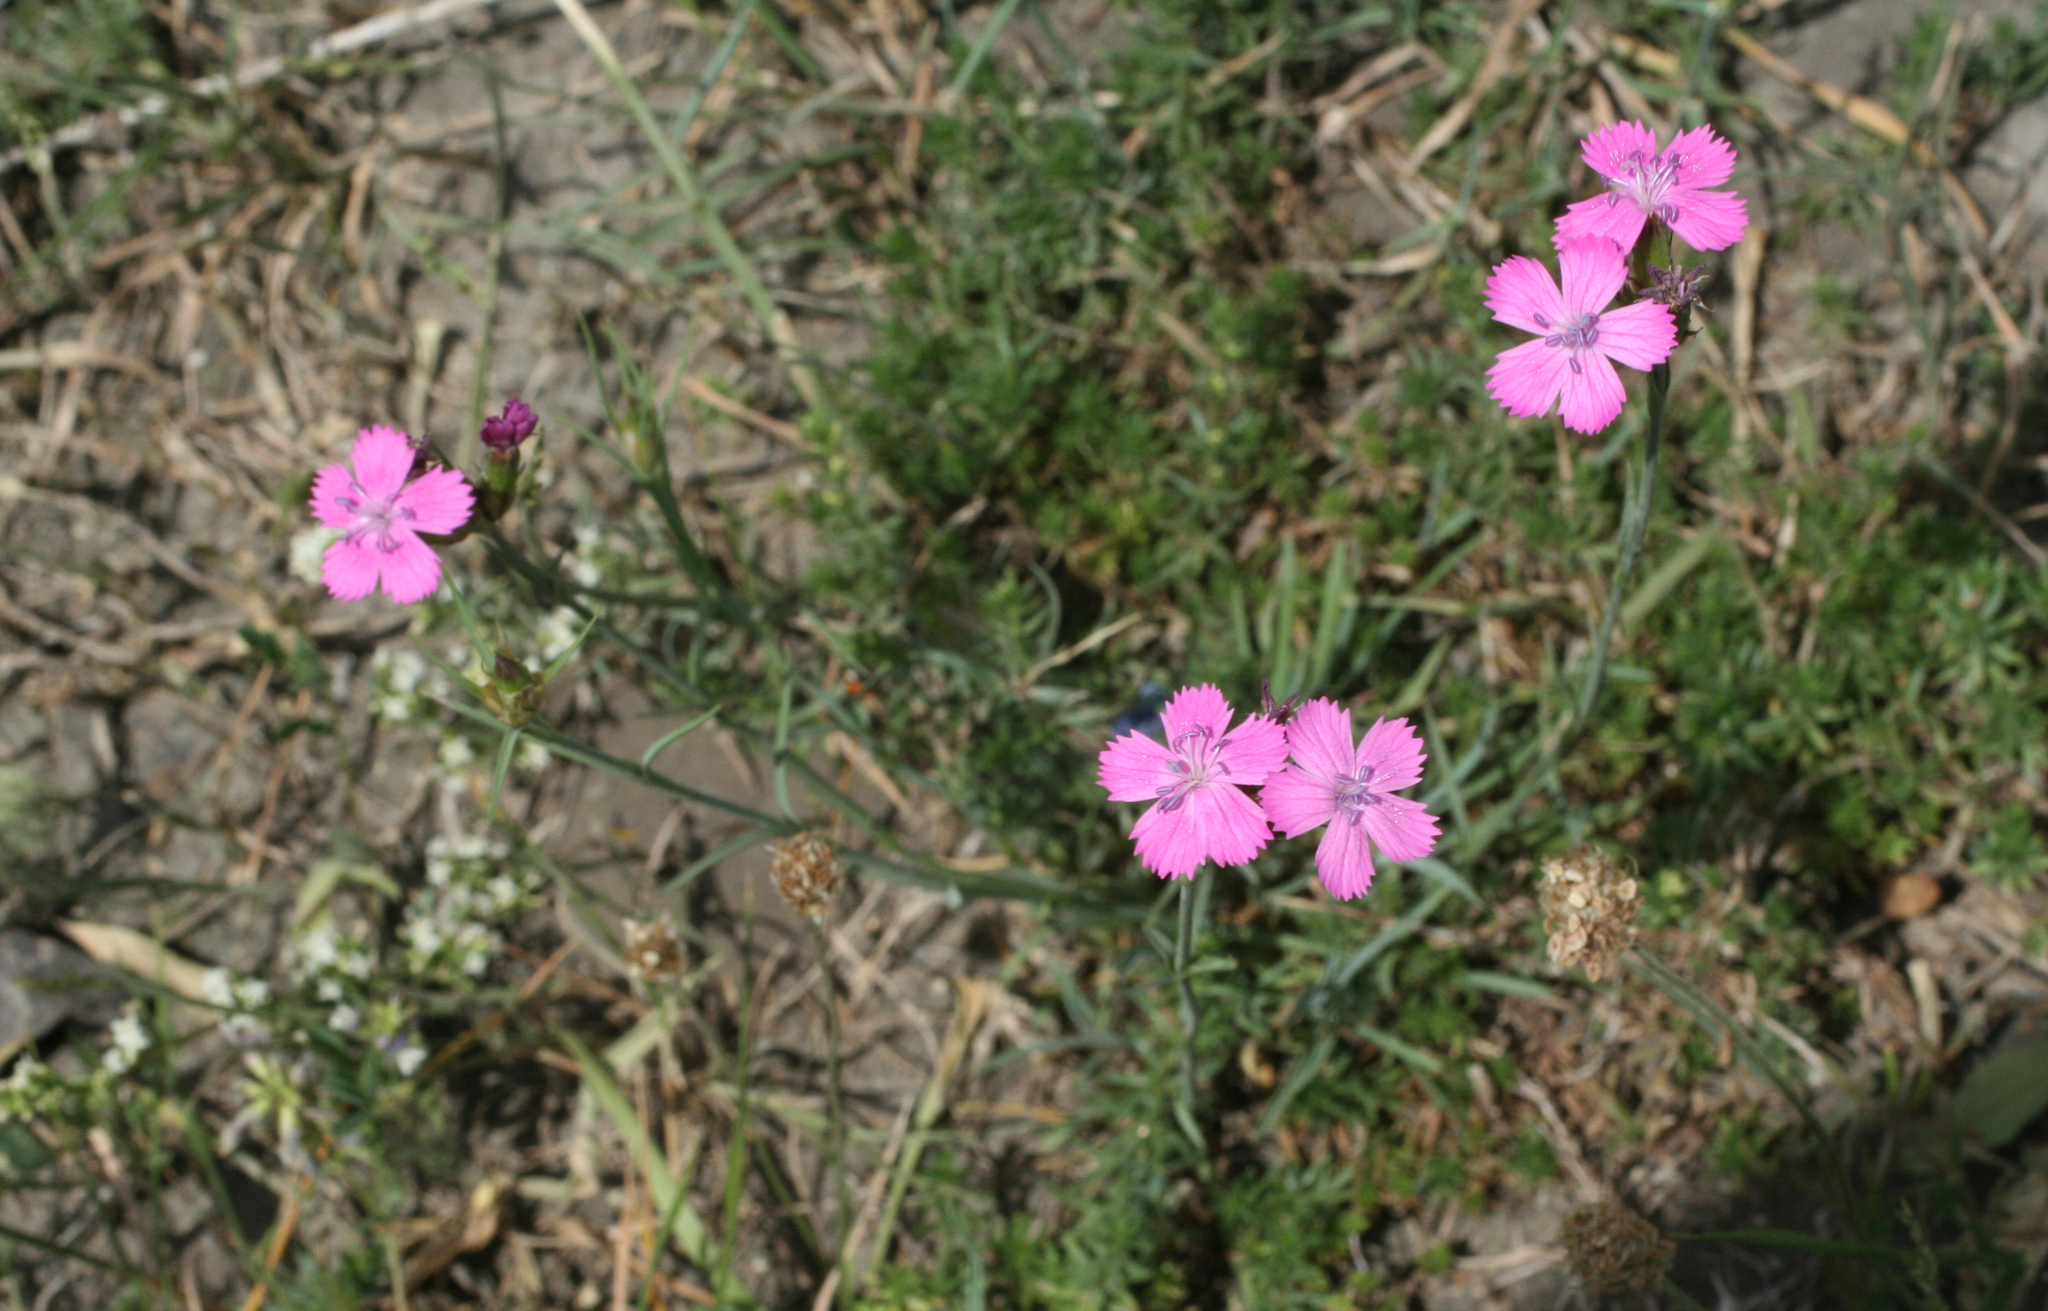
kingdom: Plantae
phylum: Tracheophyta
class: Magnoliopsida
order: Caryophyllales
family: Caryophyllaceae
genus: Dianthus
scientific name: Dianthus ruprechtii
